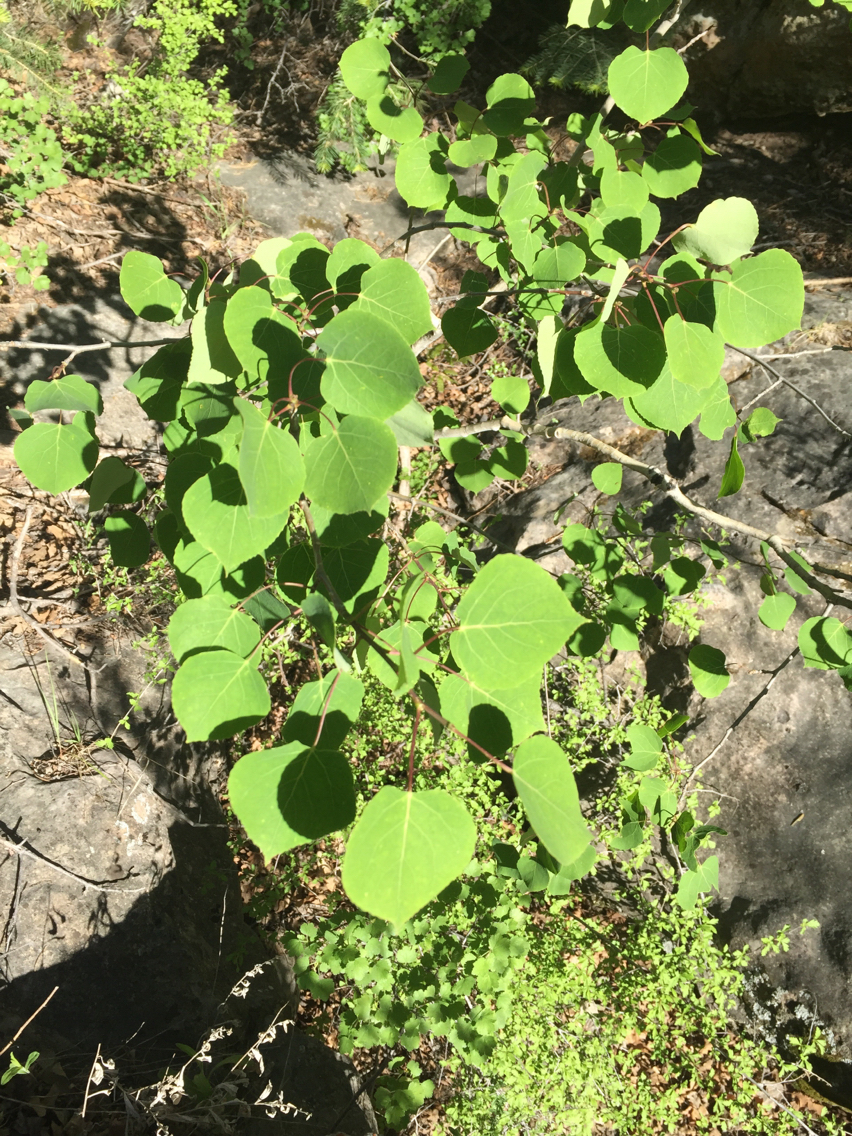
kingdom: Plantae
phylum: Tracheophyta
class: Magnoliopsida
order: Malpighiales
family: Salicaceae
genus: Populus
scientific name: Populus tremuloides
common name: Quaking aspen
